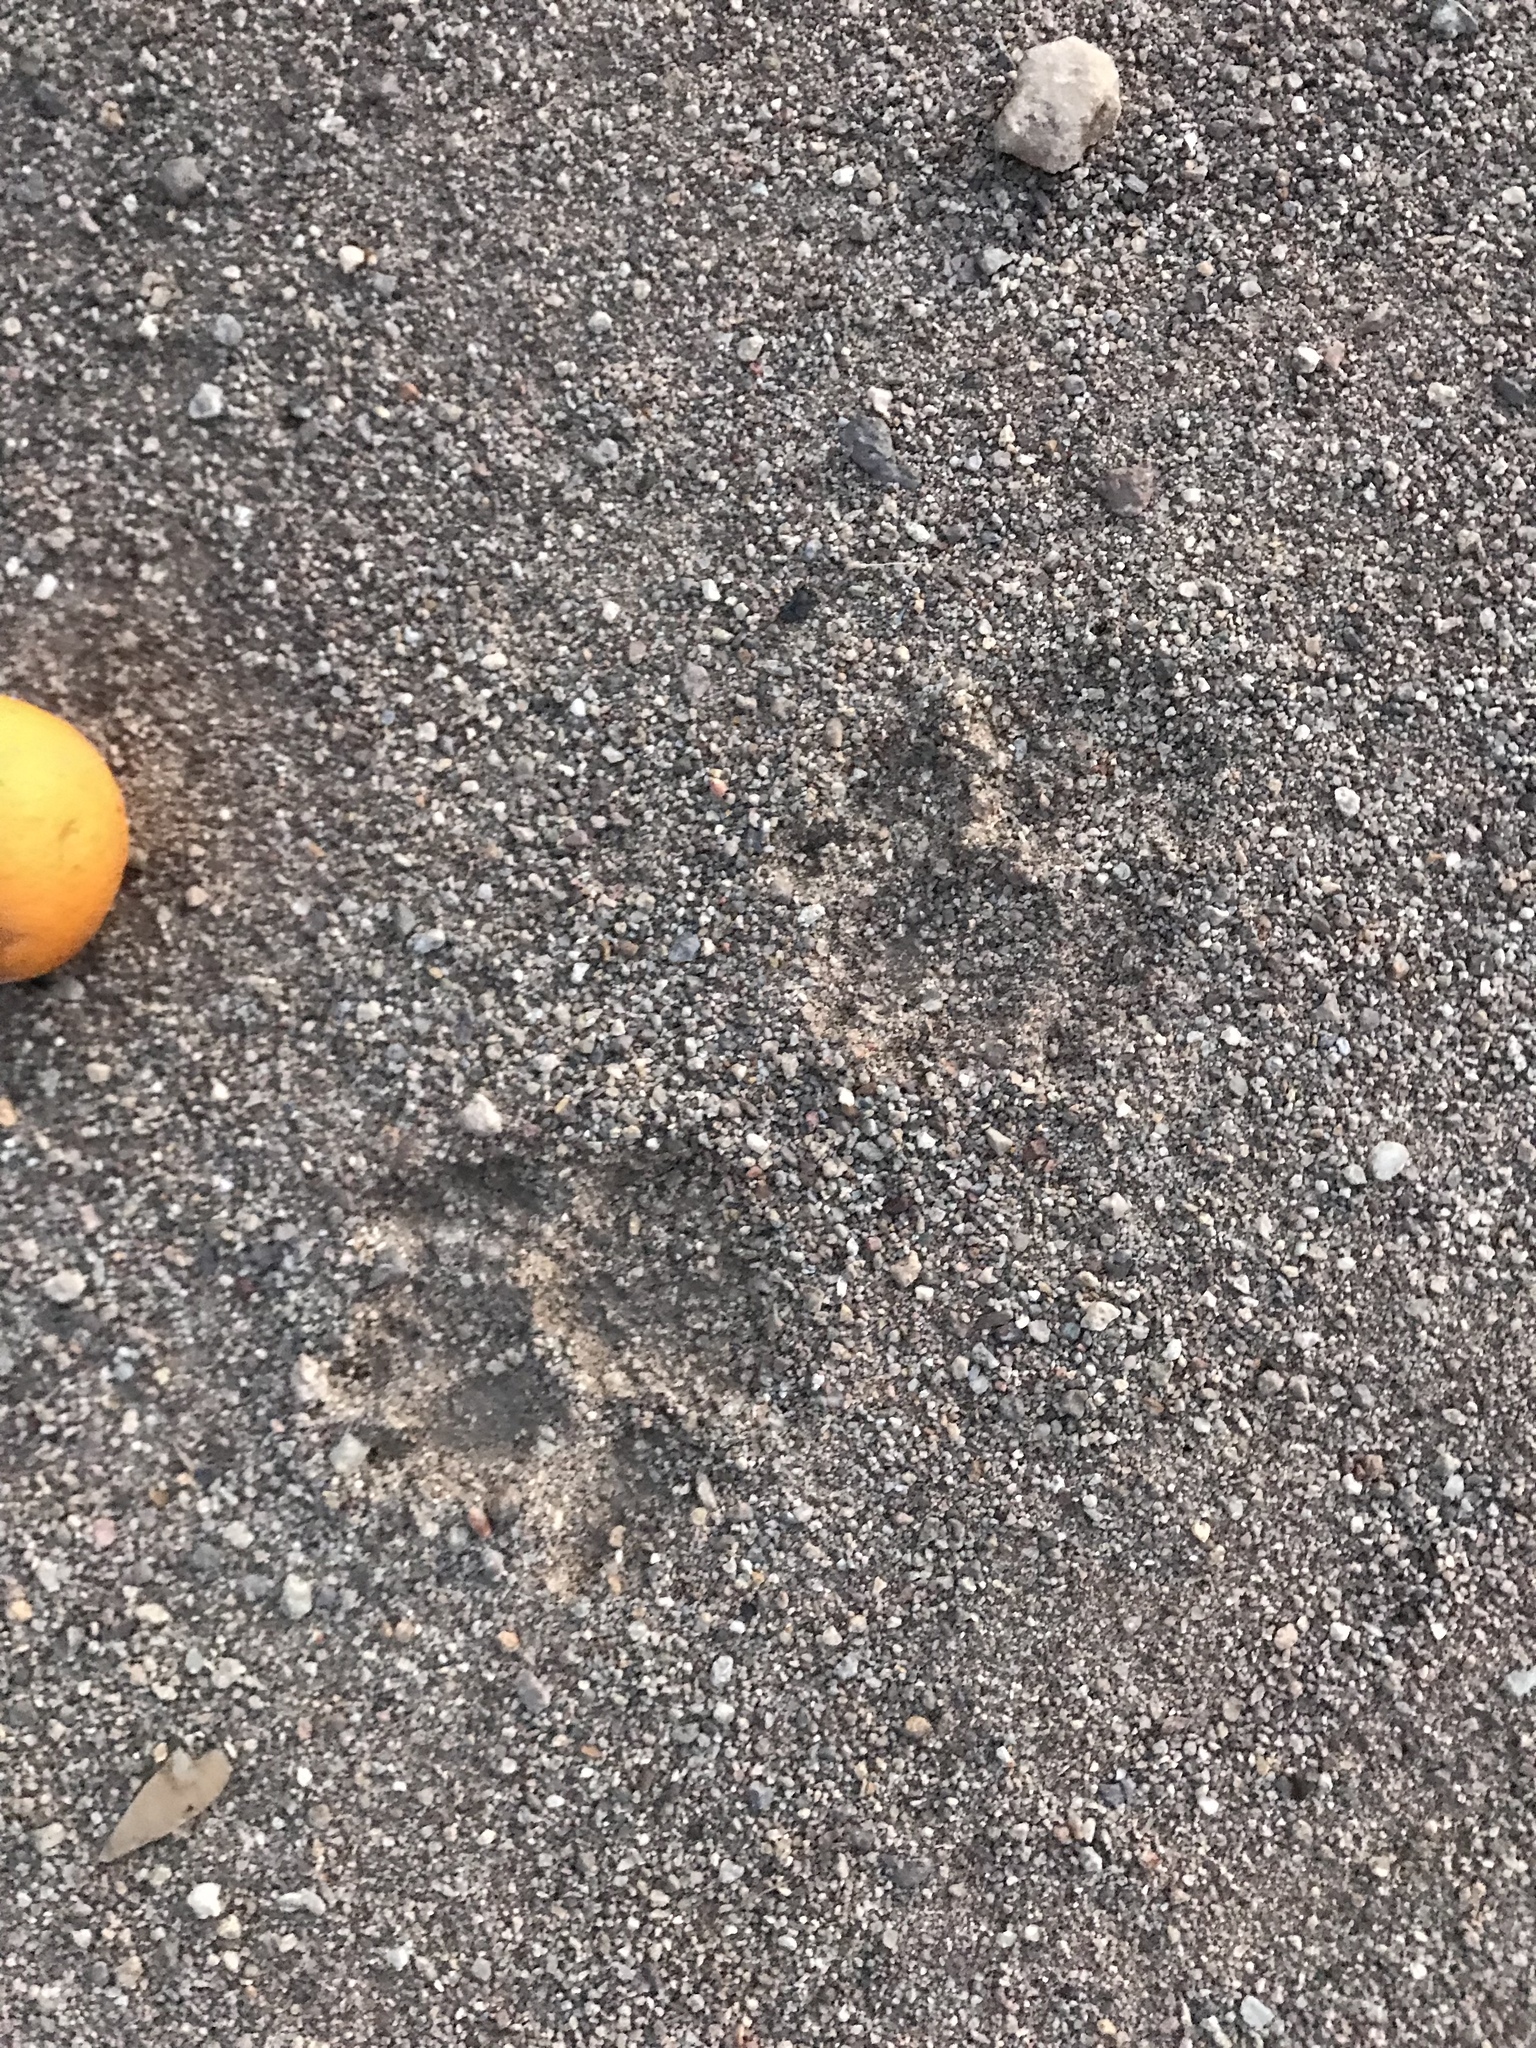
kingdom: Animalia
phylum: Chordata
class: Mammalia
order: Carnivora
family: Procyonidae
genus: Procyon
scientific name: Procyon lotor
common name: Raccoon
